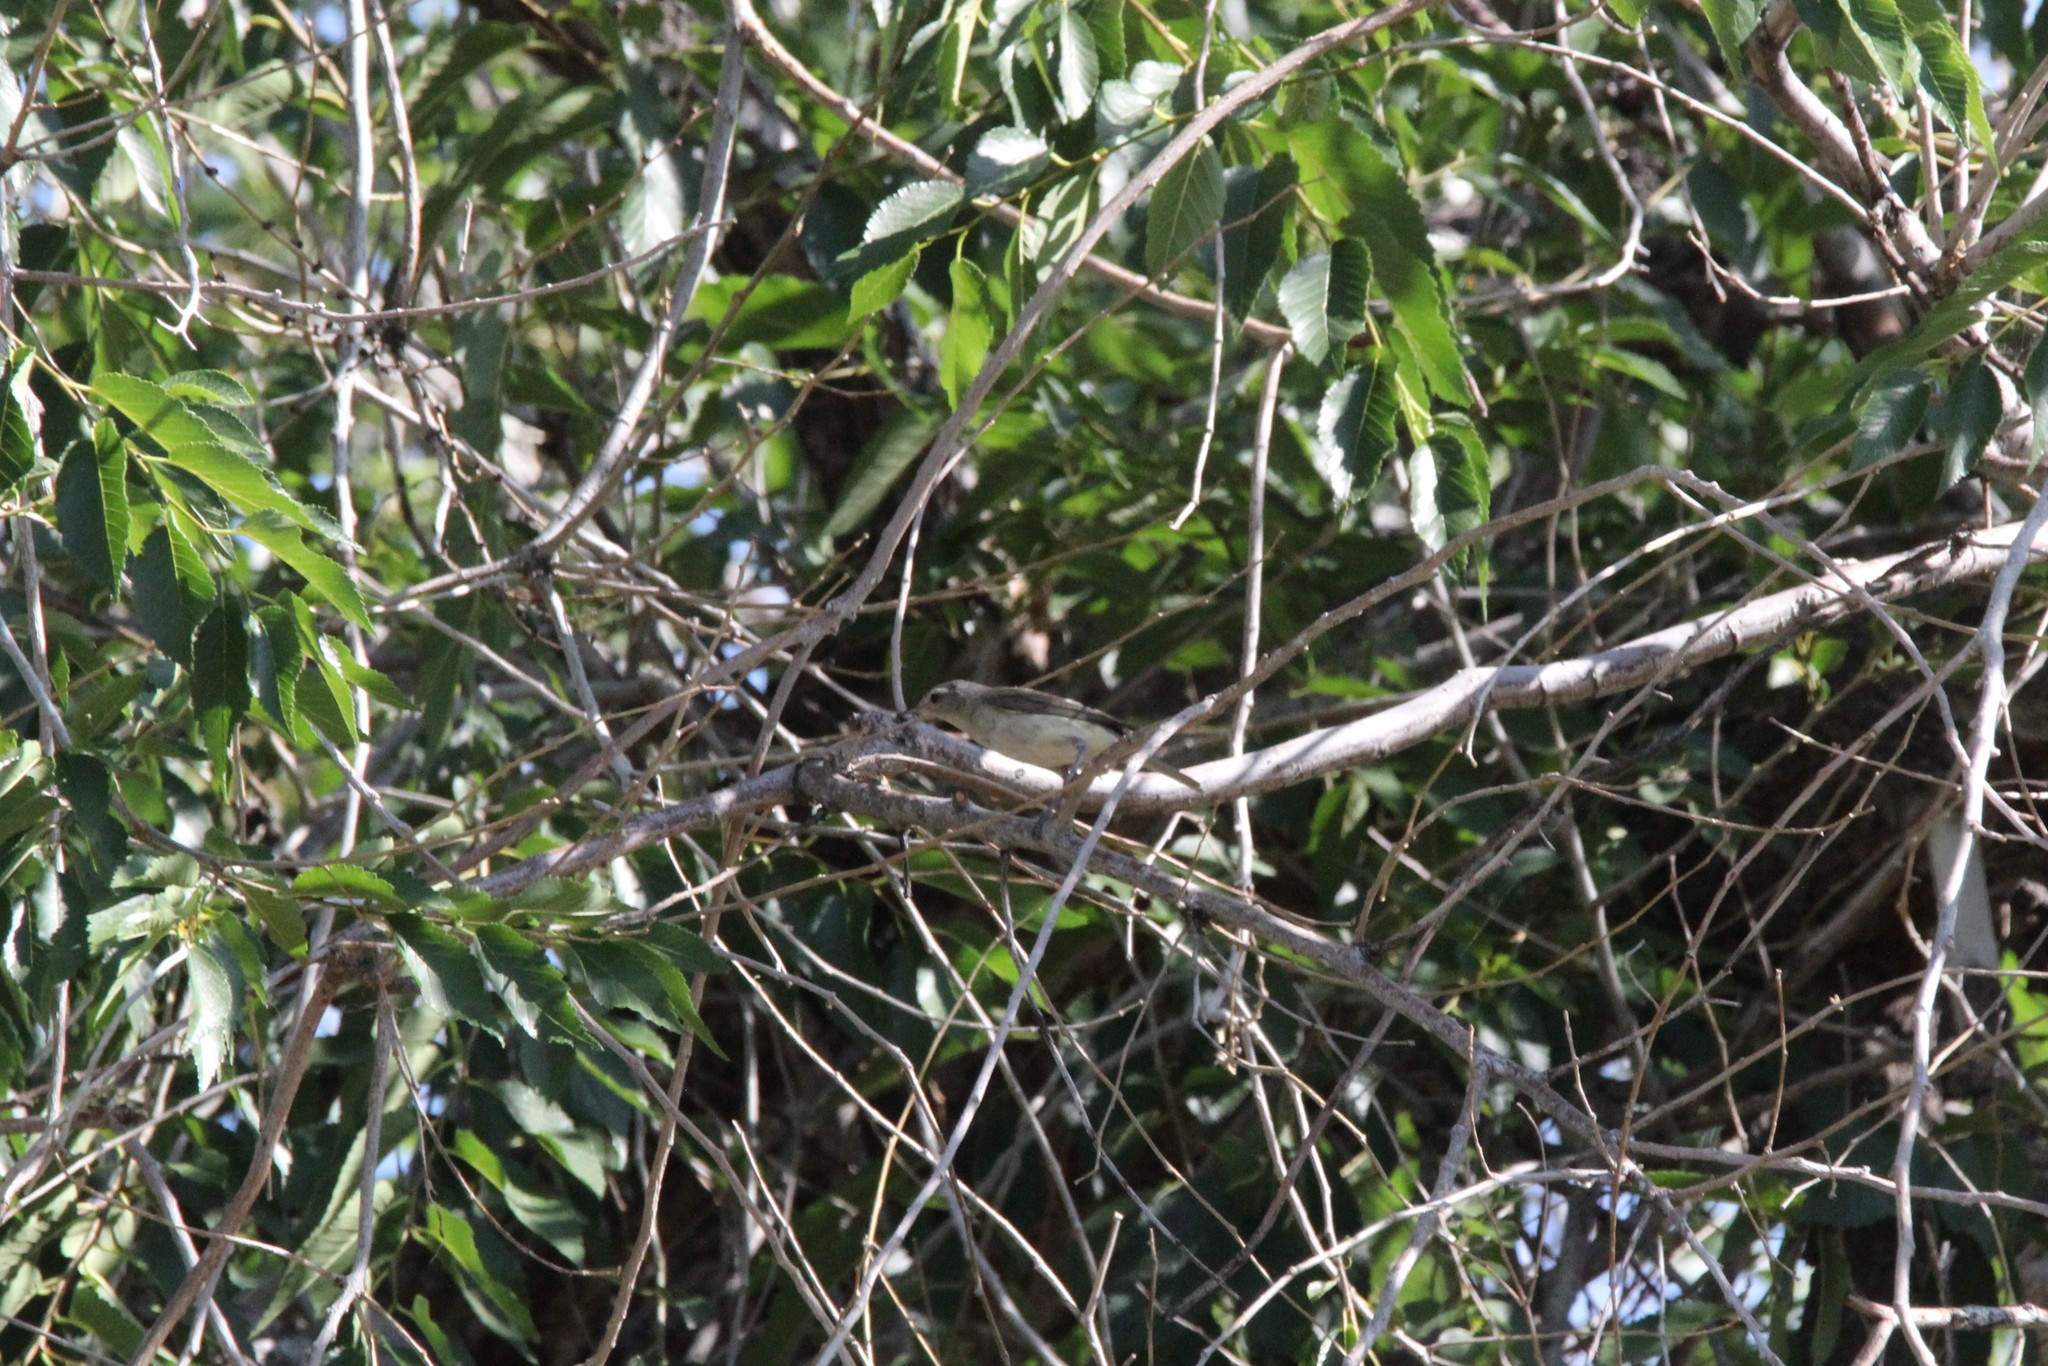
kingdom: Animalia
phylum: Chordata
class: Aves
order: Passeriformes
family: Vireonidae
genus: Vireo
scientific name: Vireo gilvus
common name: Warbling vireo
